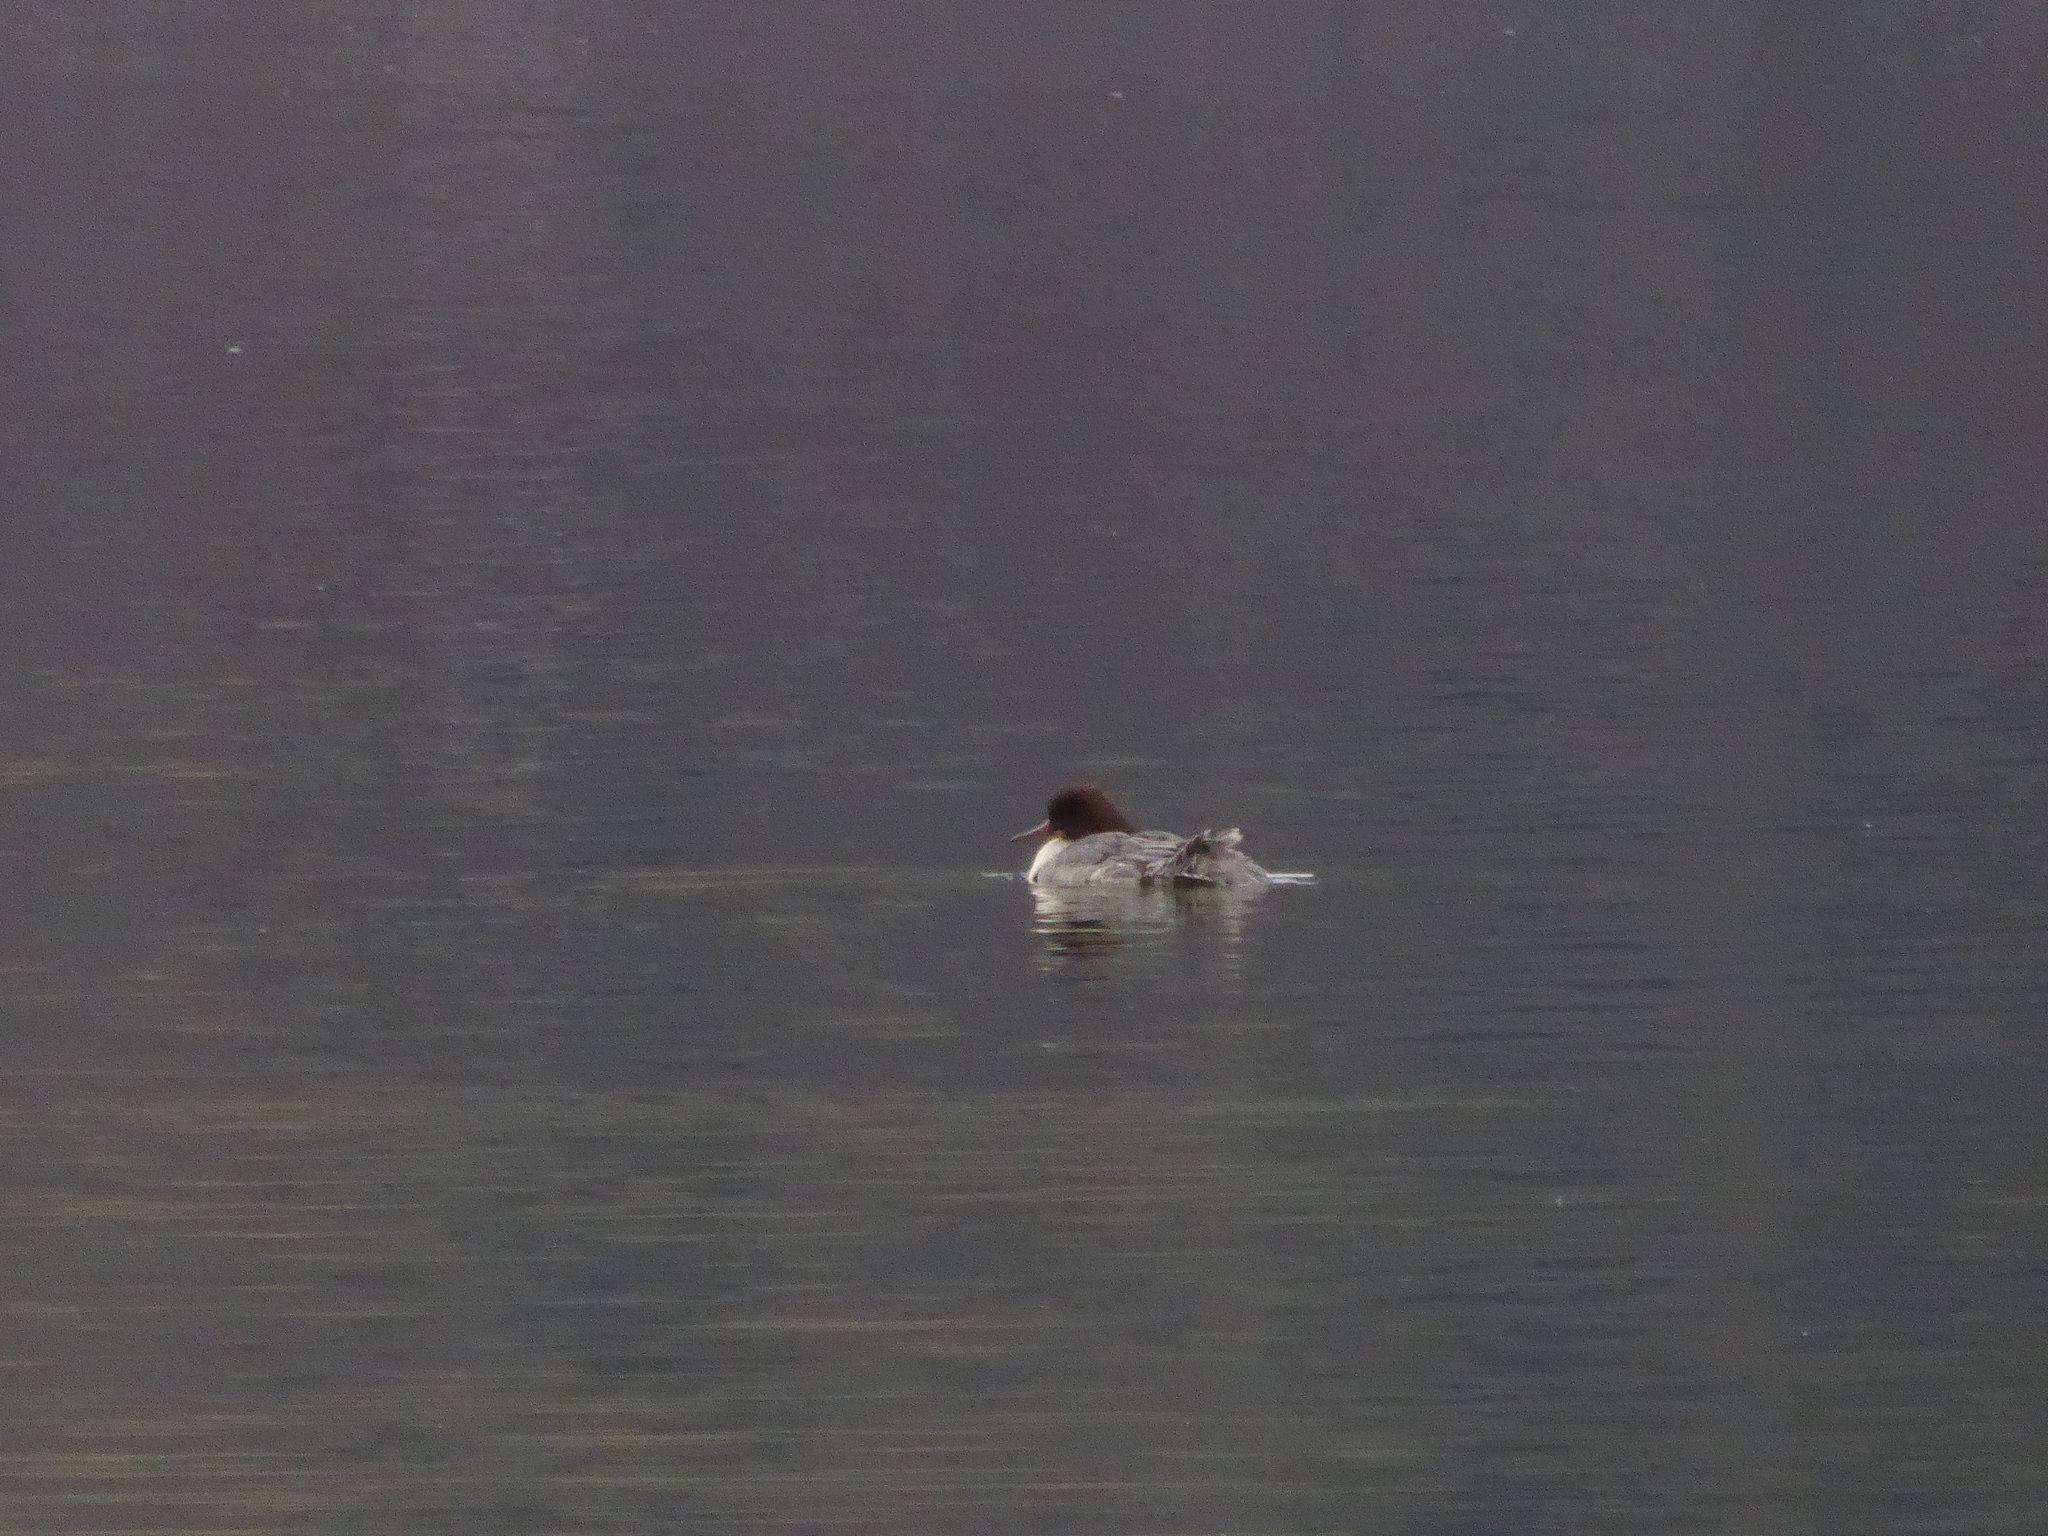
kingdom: Animalia
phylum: Chordata
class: Aves
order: Anseriformes
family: Anatidae
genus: Mergus
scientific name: Mergus merganser
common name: Common merganser
